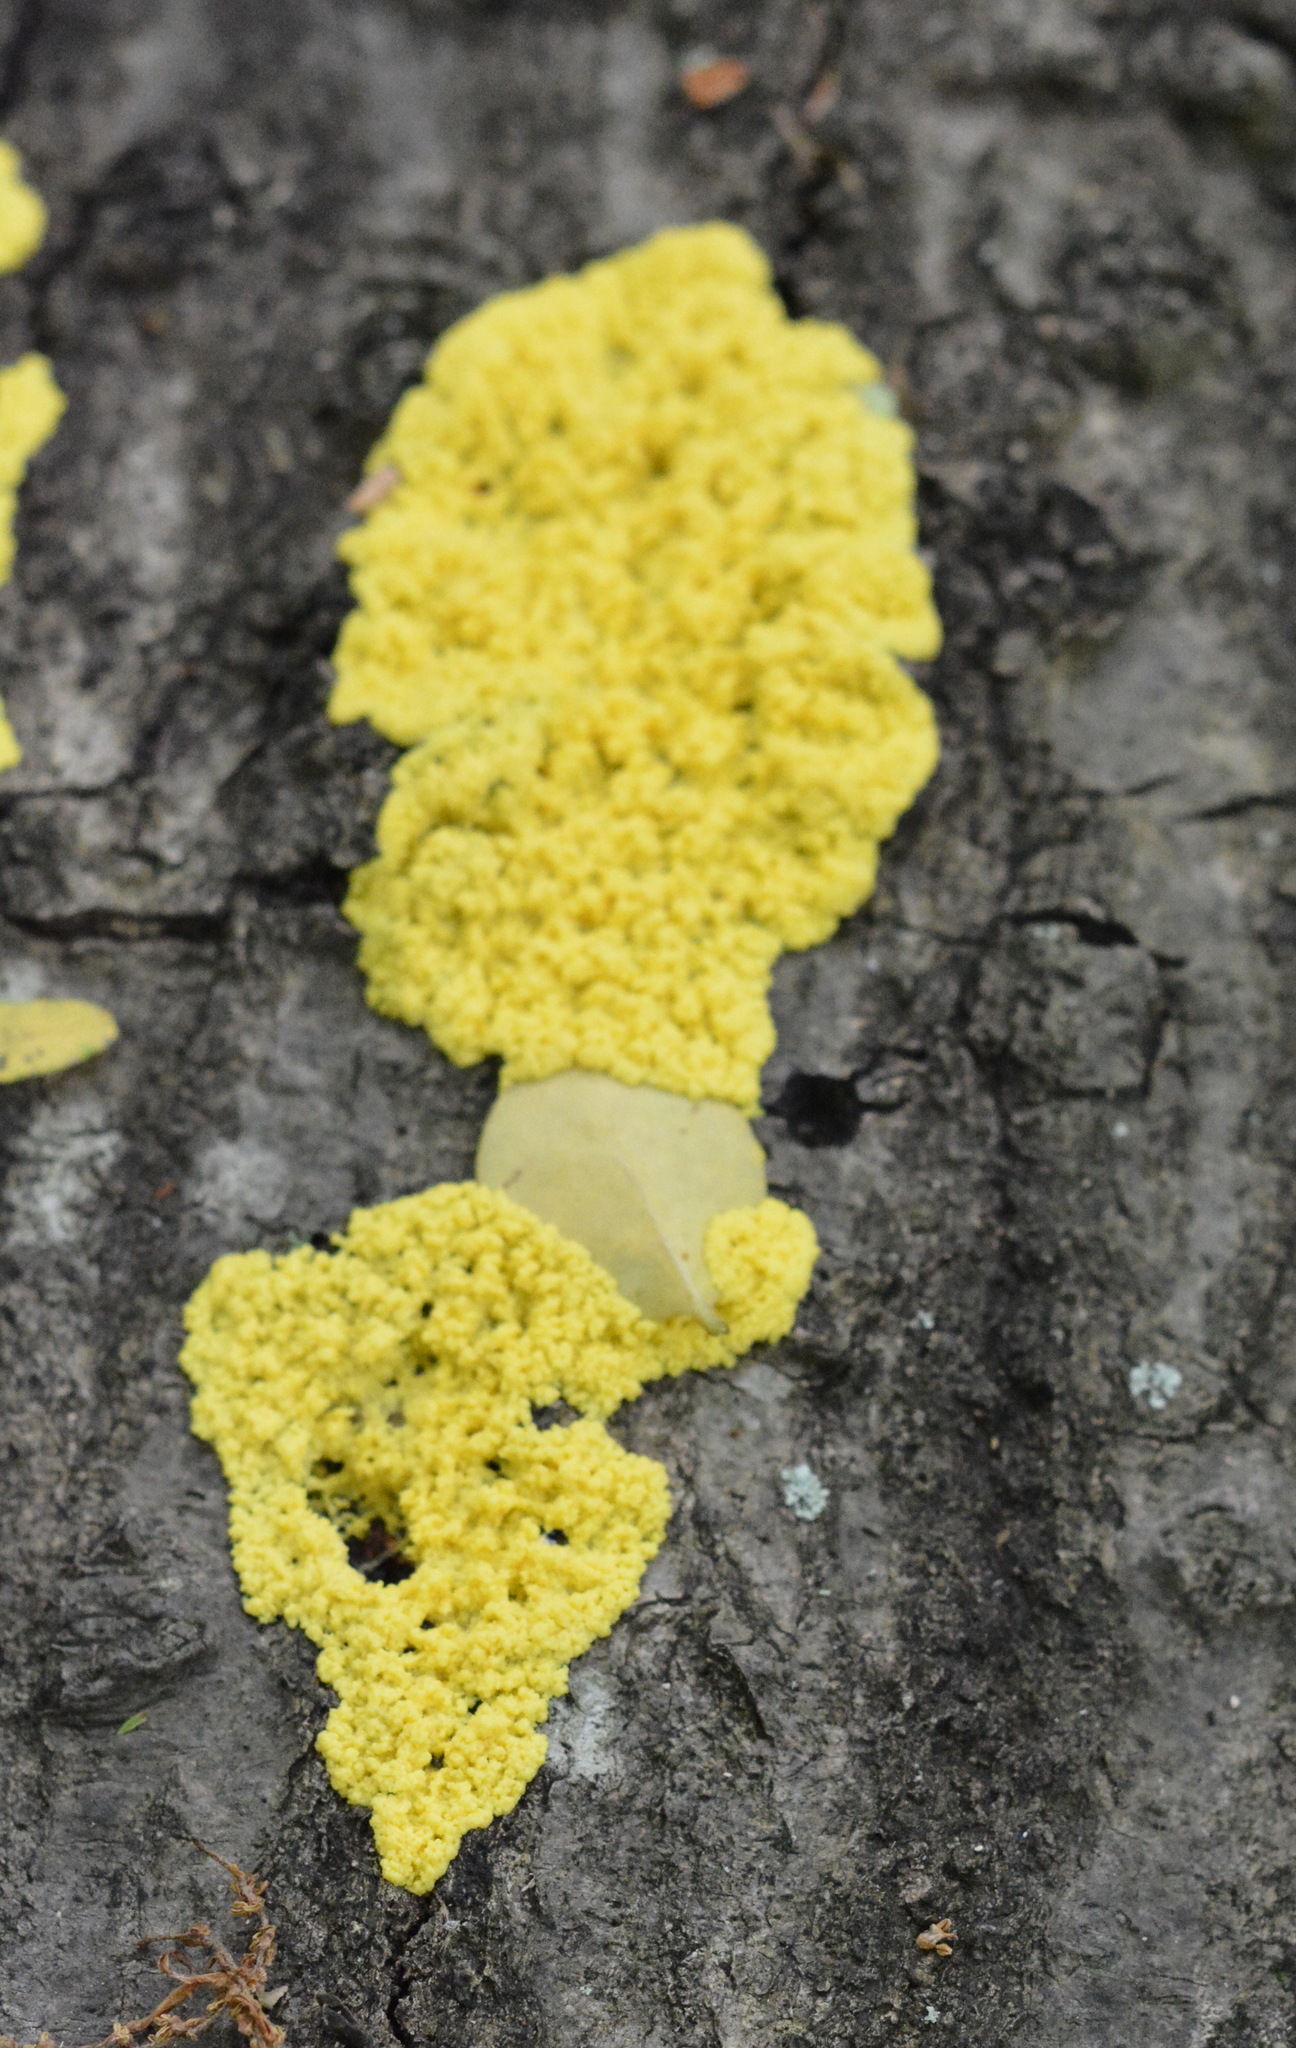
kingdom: Protozoa
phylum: Mycetozoa
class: Myxomycetes
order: Physarales
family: Physaraceae
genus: Fuligo
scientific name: Fuligo septica
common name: Dog vomit slime mold
